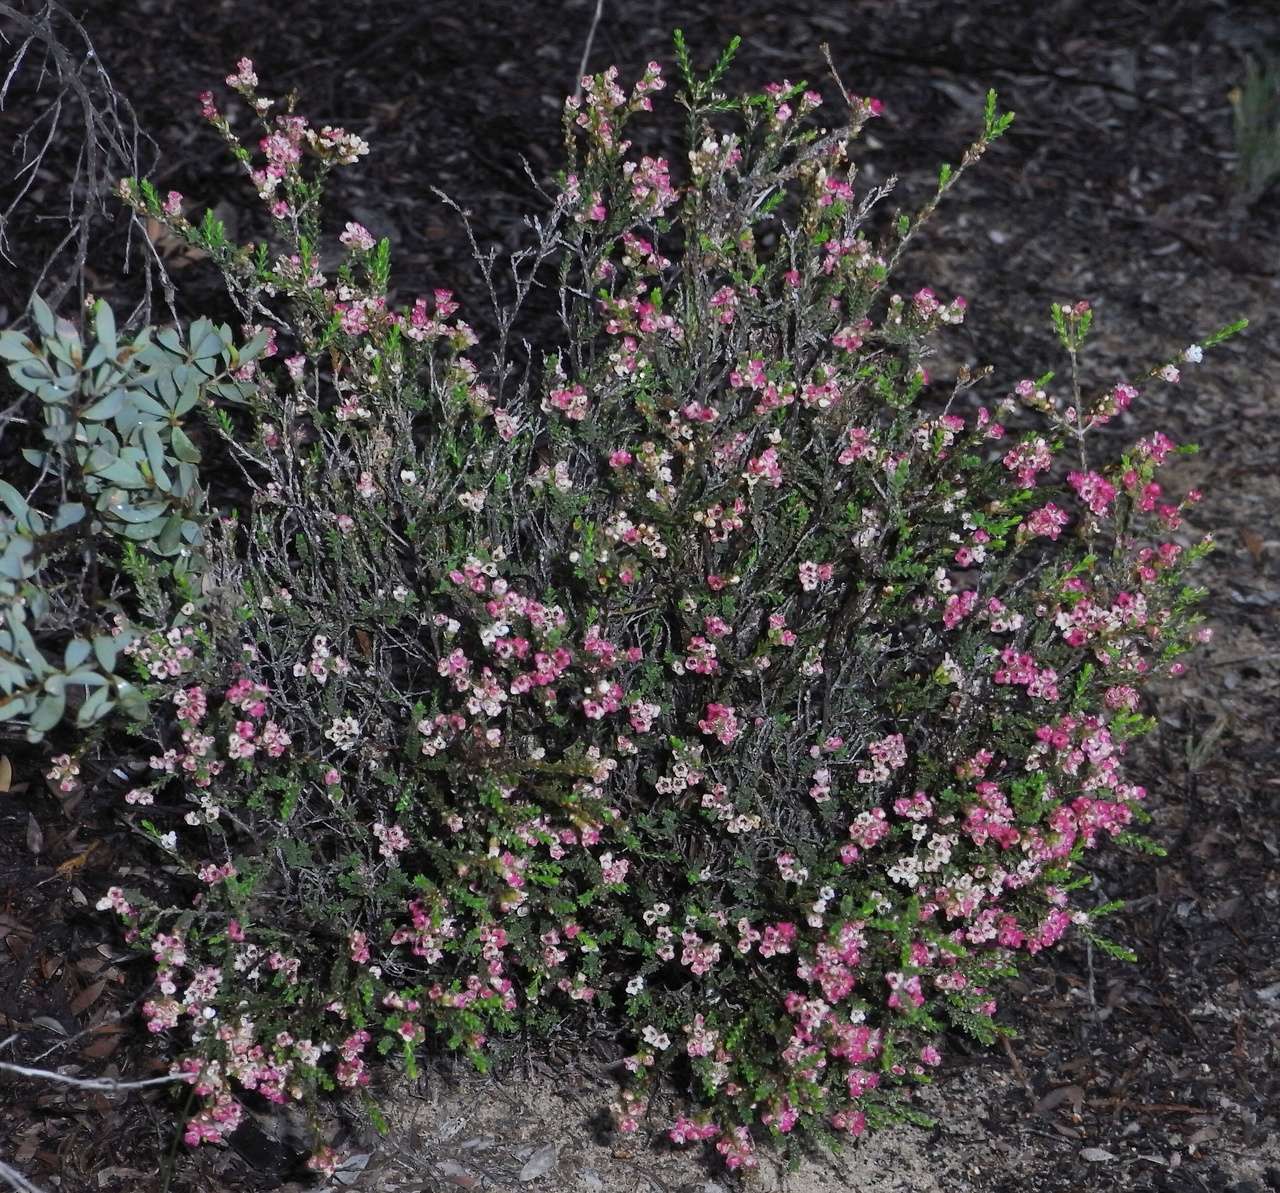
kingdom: Plantae
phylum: Tracheophyta
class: Magnoliopsida
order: Myrtales
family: Myrtaceae
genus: Micromyrtus
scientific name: Micromyrtus ciliata
